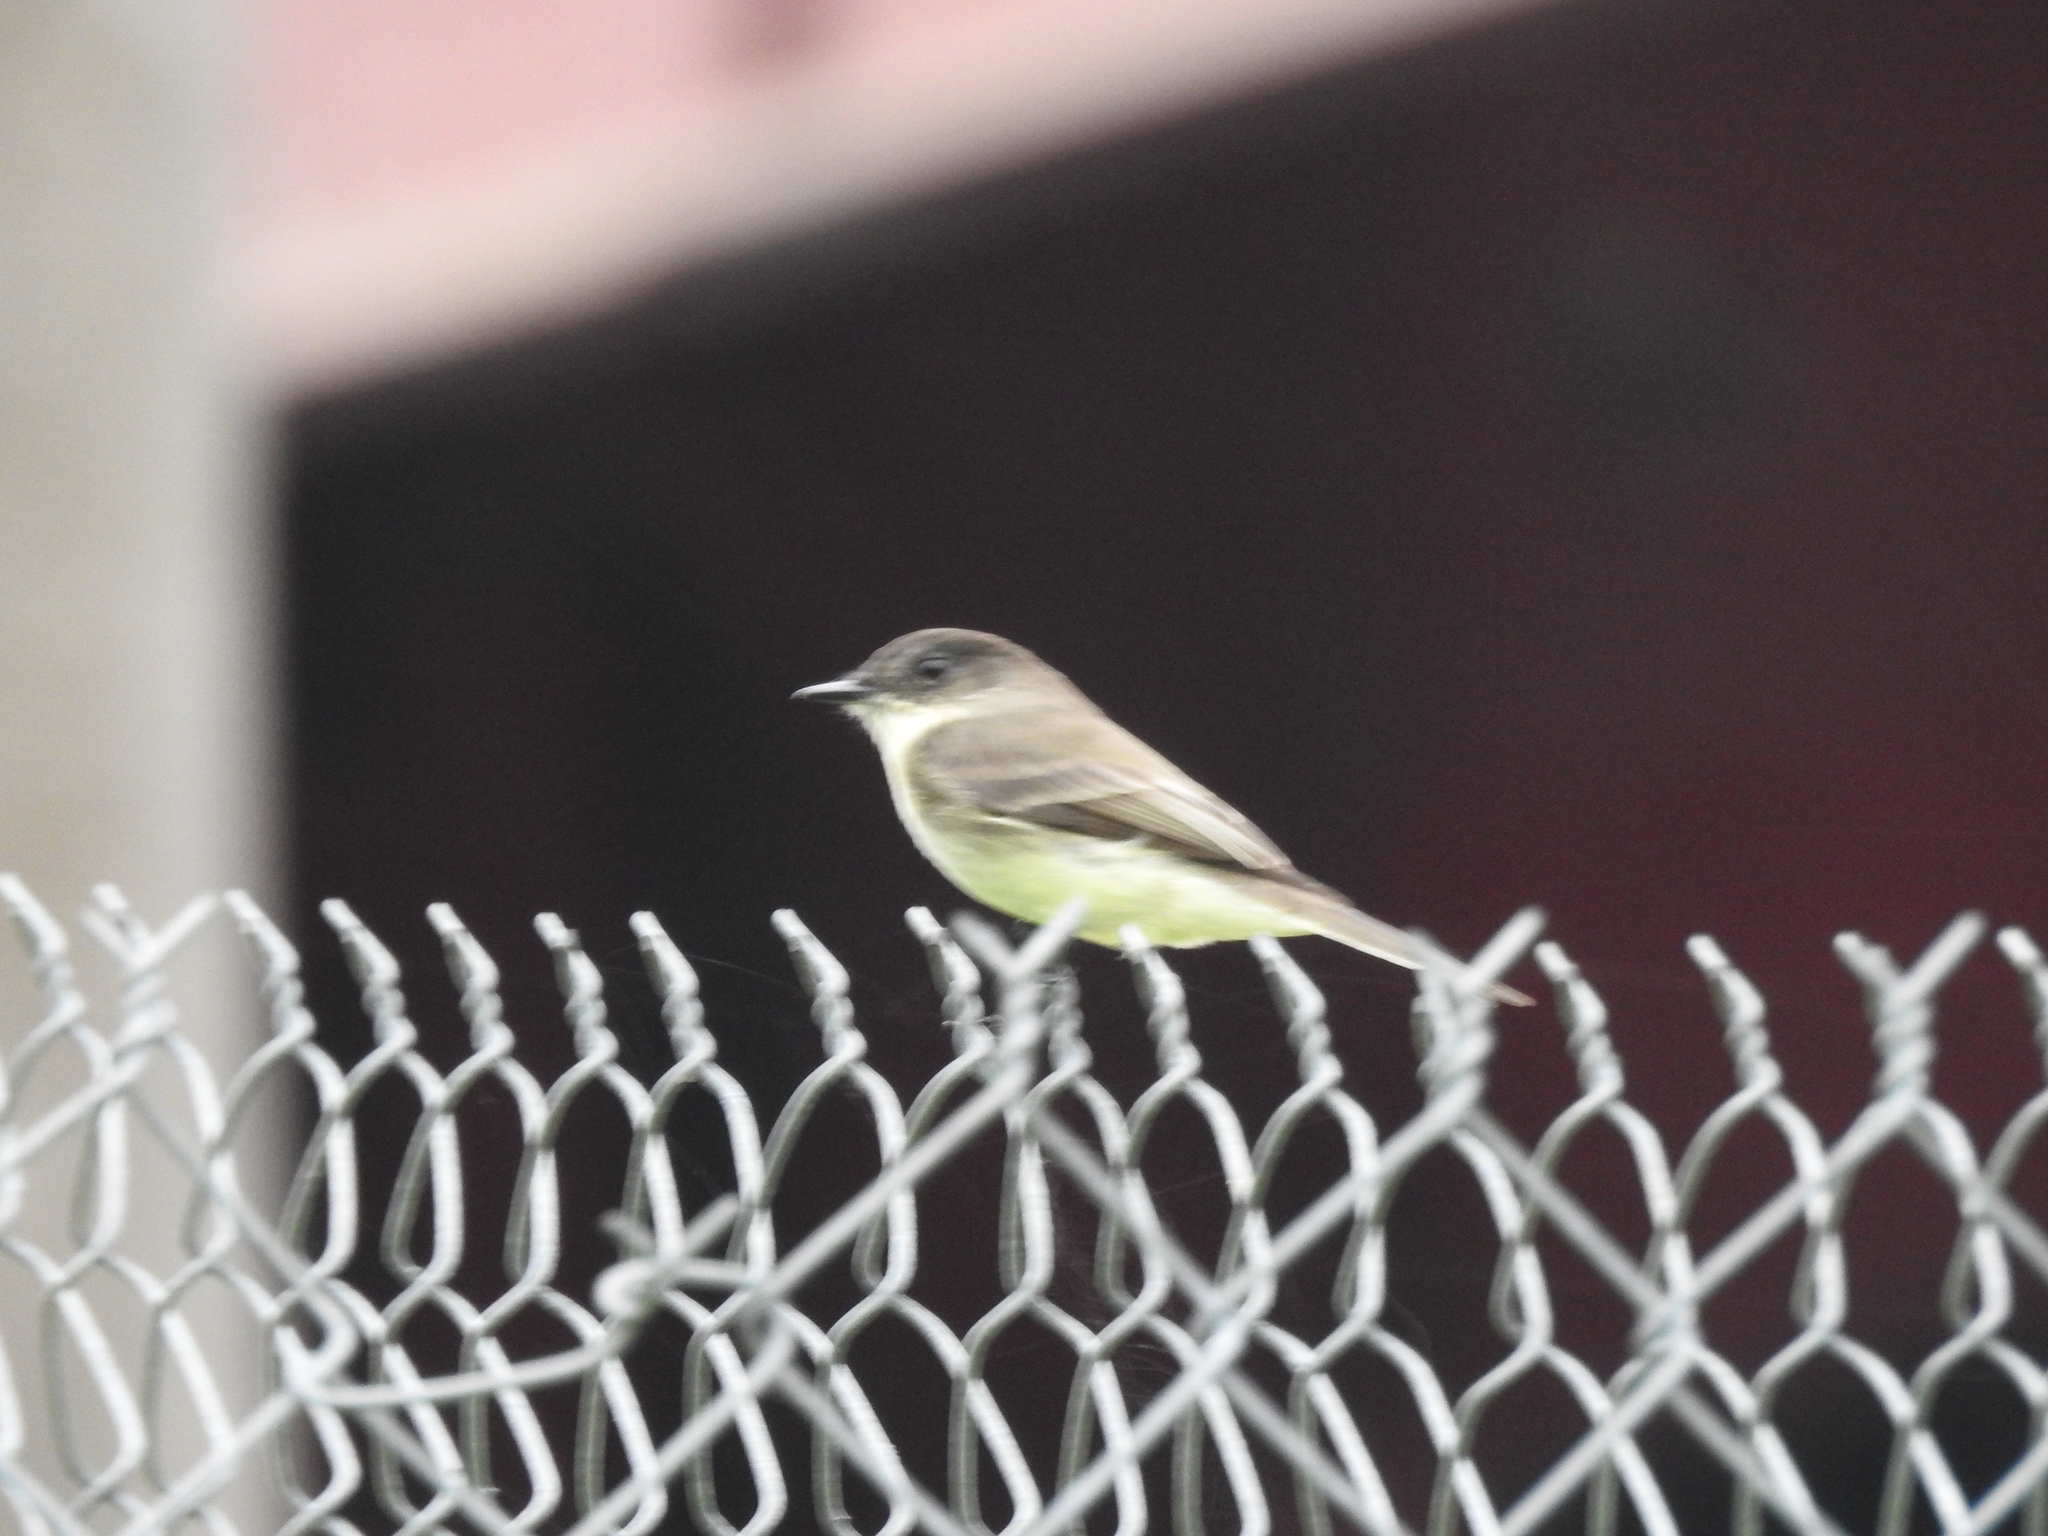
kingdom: Animalia
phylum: Chordata
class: Aves
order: Passeriformes
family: Tyrannidae
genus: Sayornis
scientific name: Sayornis phoebe
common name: Eastern phoebe
